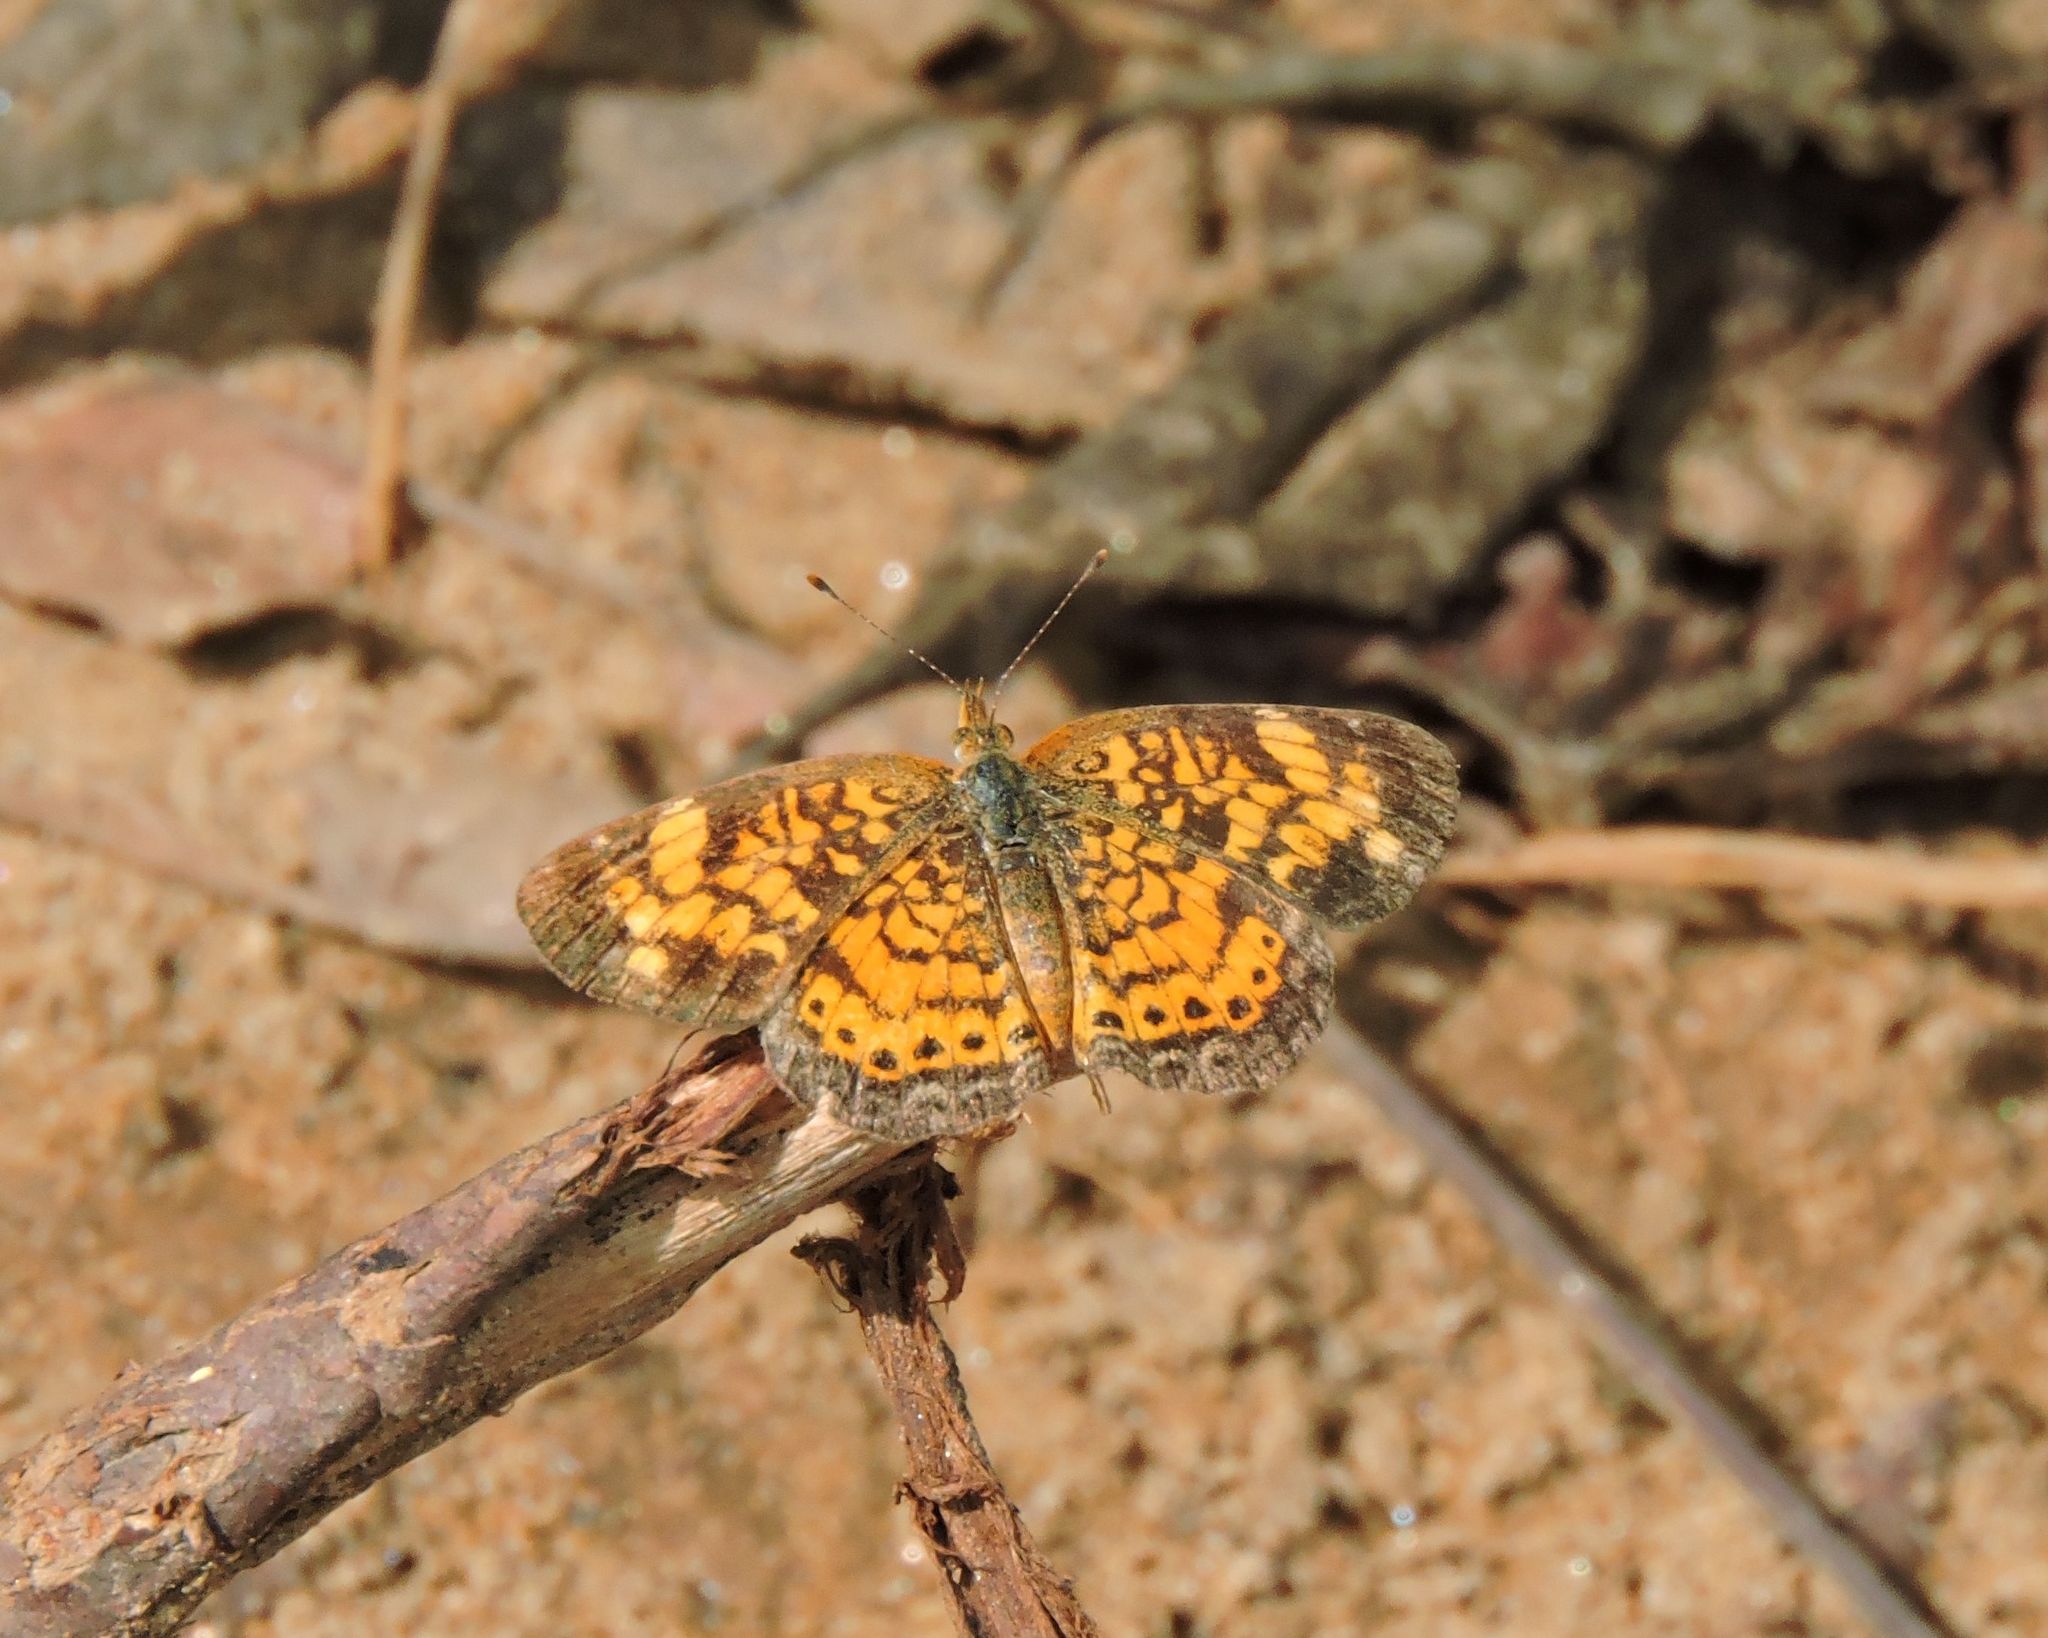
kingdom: Animalia
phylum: Arthropoda
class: Insecta
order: Lepidoptera
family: Nymphalidae
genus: Phyciodes
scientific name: Phyciodes tharos
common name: Pearl crescent
